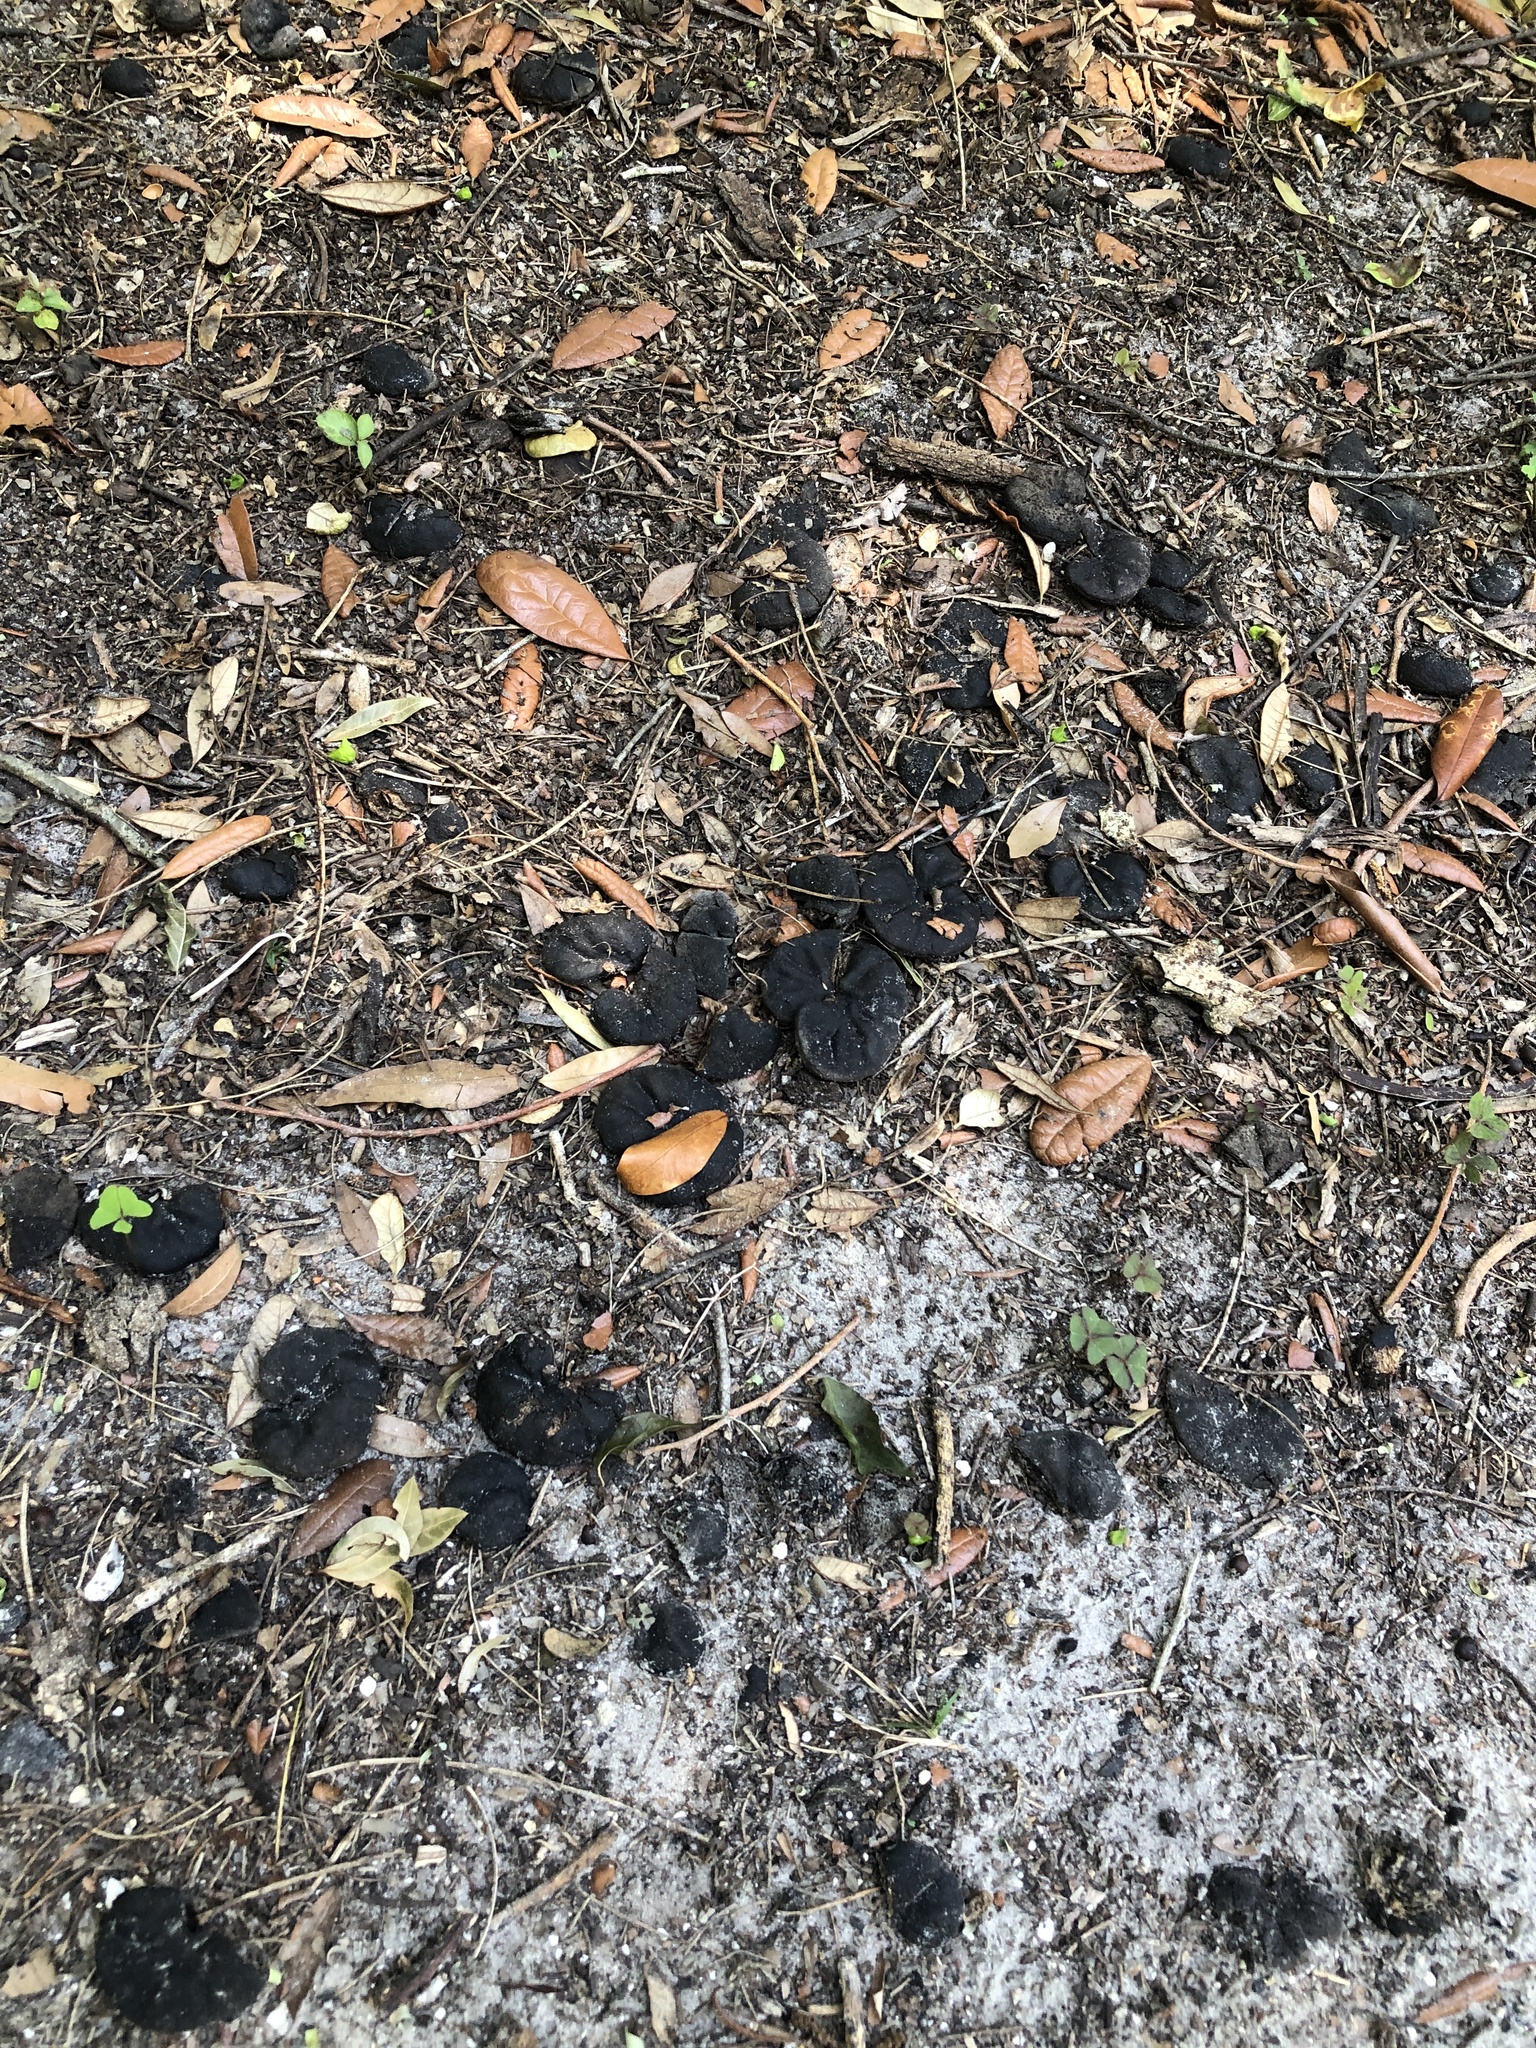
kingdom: Plantae
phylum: Tracheophyta
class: Magnoliopsida
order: Fabales
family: Fabaceae
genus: Enterolobium
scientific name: Enterolobium contortisiliquum
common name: Pacara earpod tree
